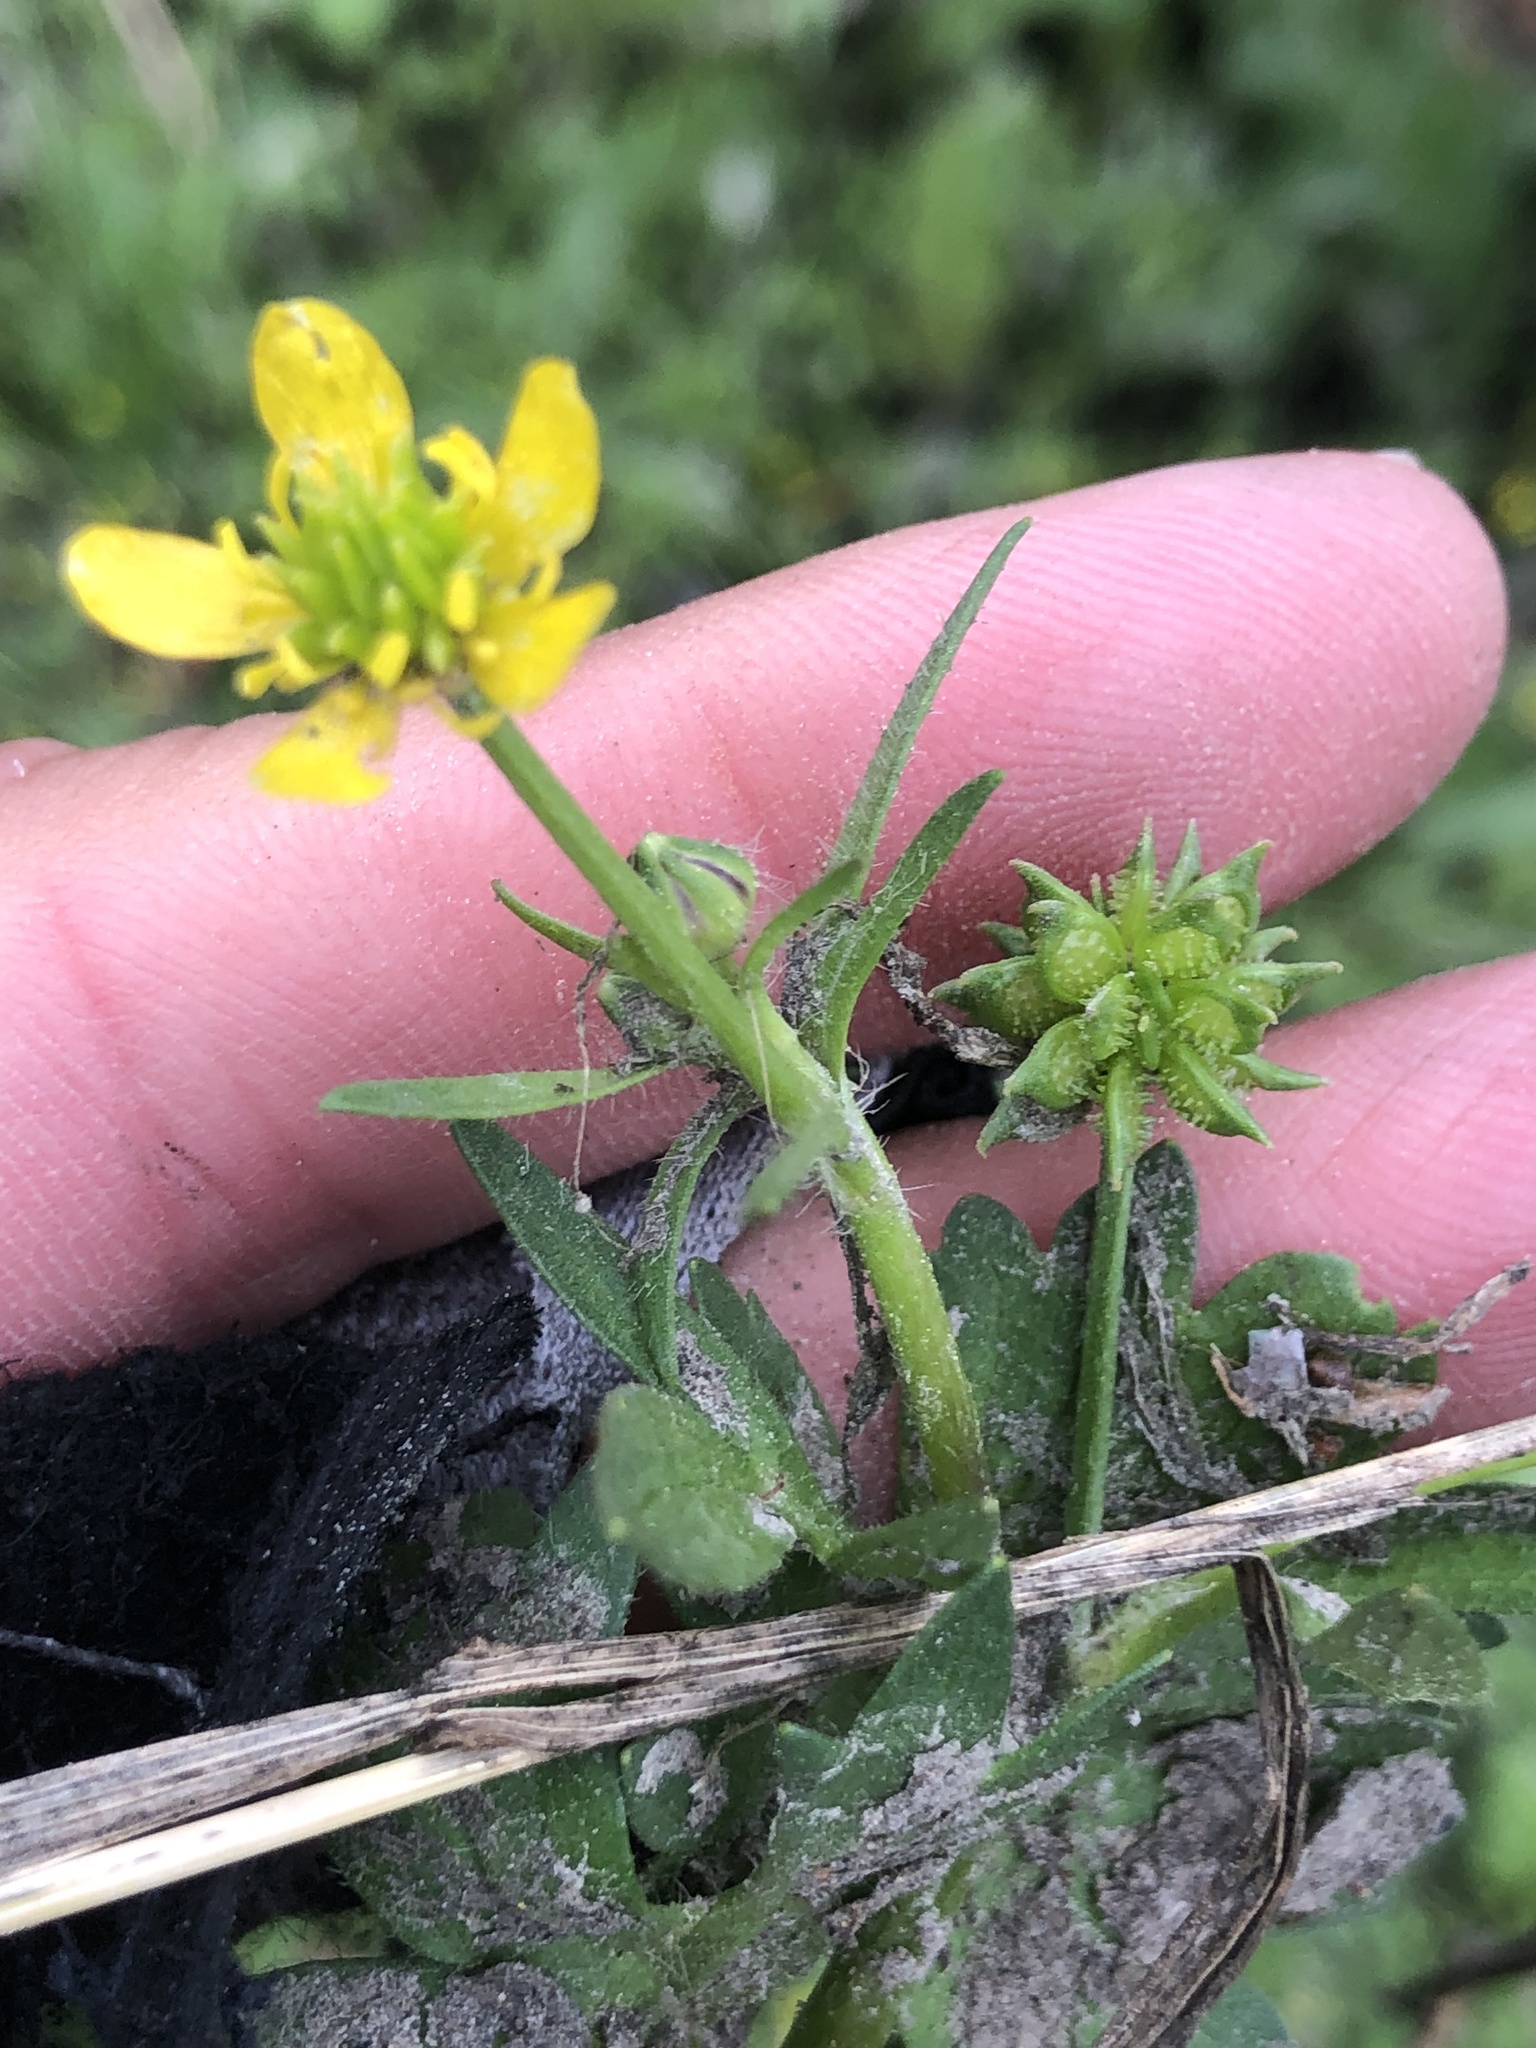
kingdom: Plantae
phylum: Tracheophyta
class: Magnoliopsida
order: Ranunculales
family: Ranunculaceae
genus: Ranunculus
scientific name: Ranunculus muricatus
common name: Rough-fruited buttercup
